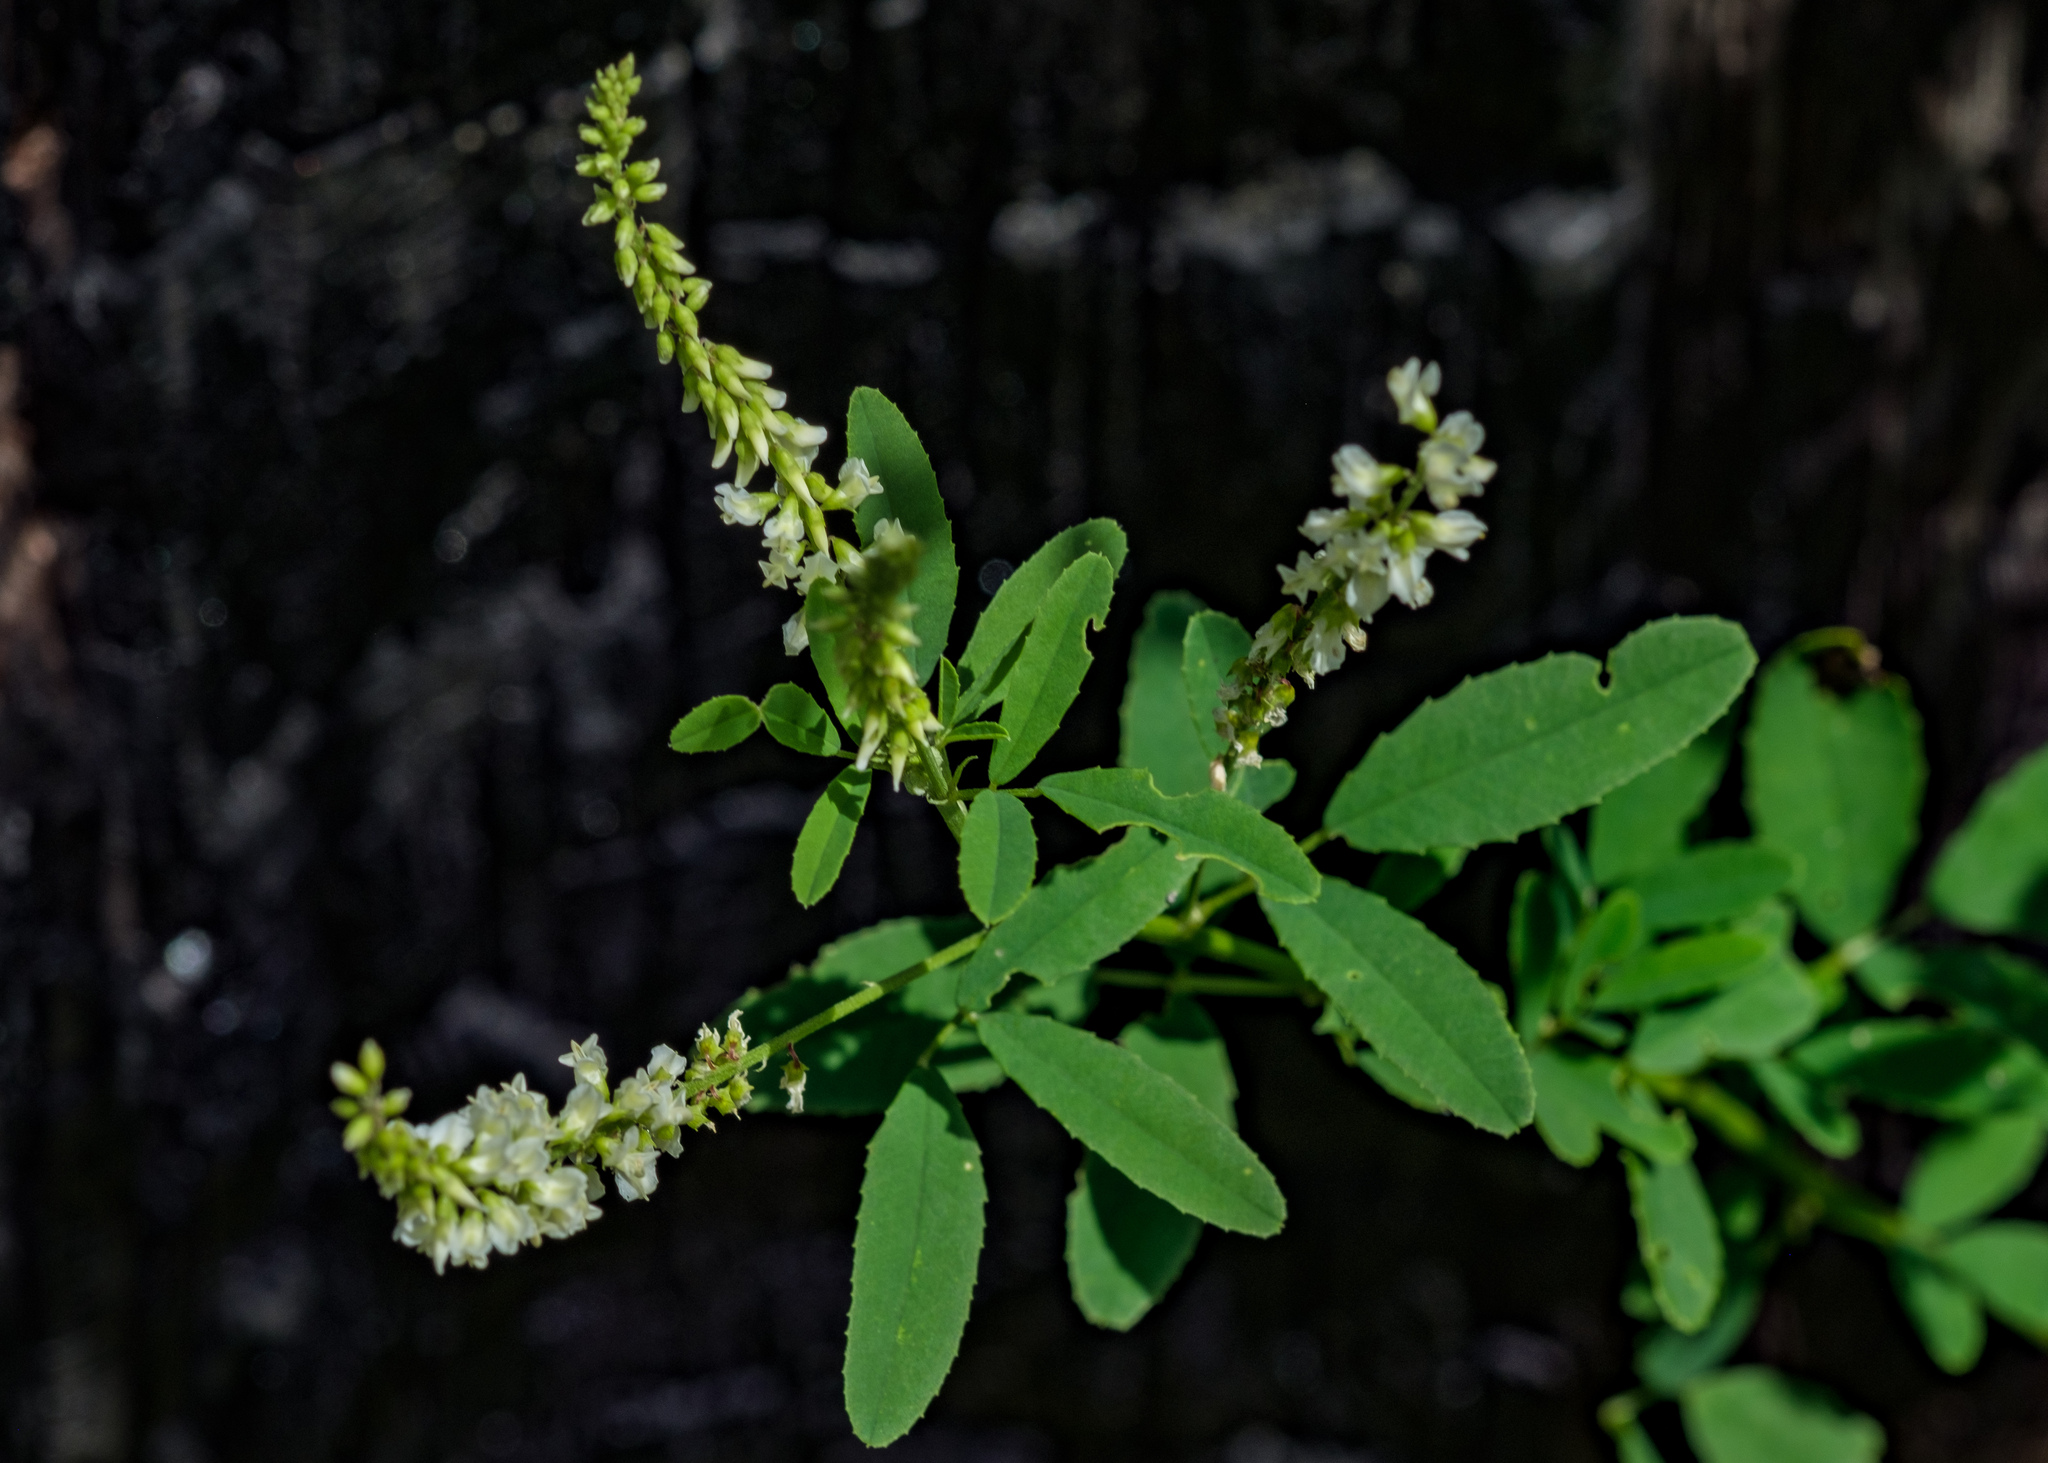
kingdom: Plantae
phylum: Tracheophyta
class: Magnoliopsida
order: Fabales
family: Fabaceae
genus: Melilotus
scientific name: Melilotus albus
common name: White melilot
